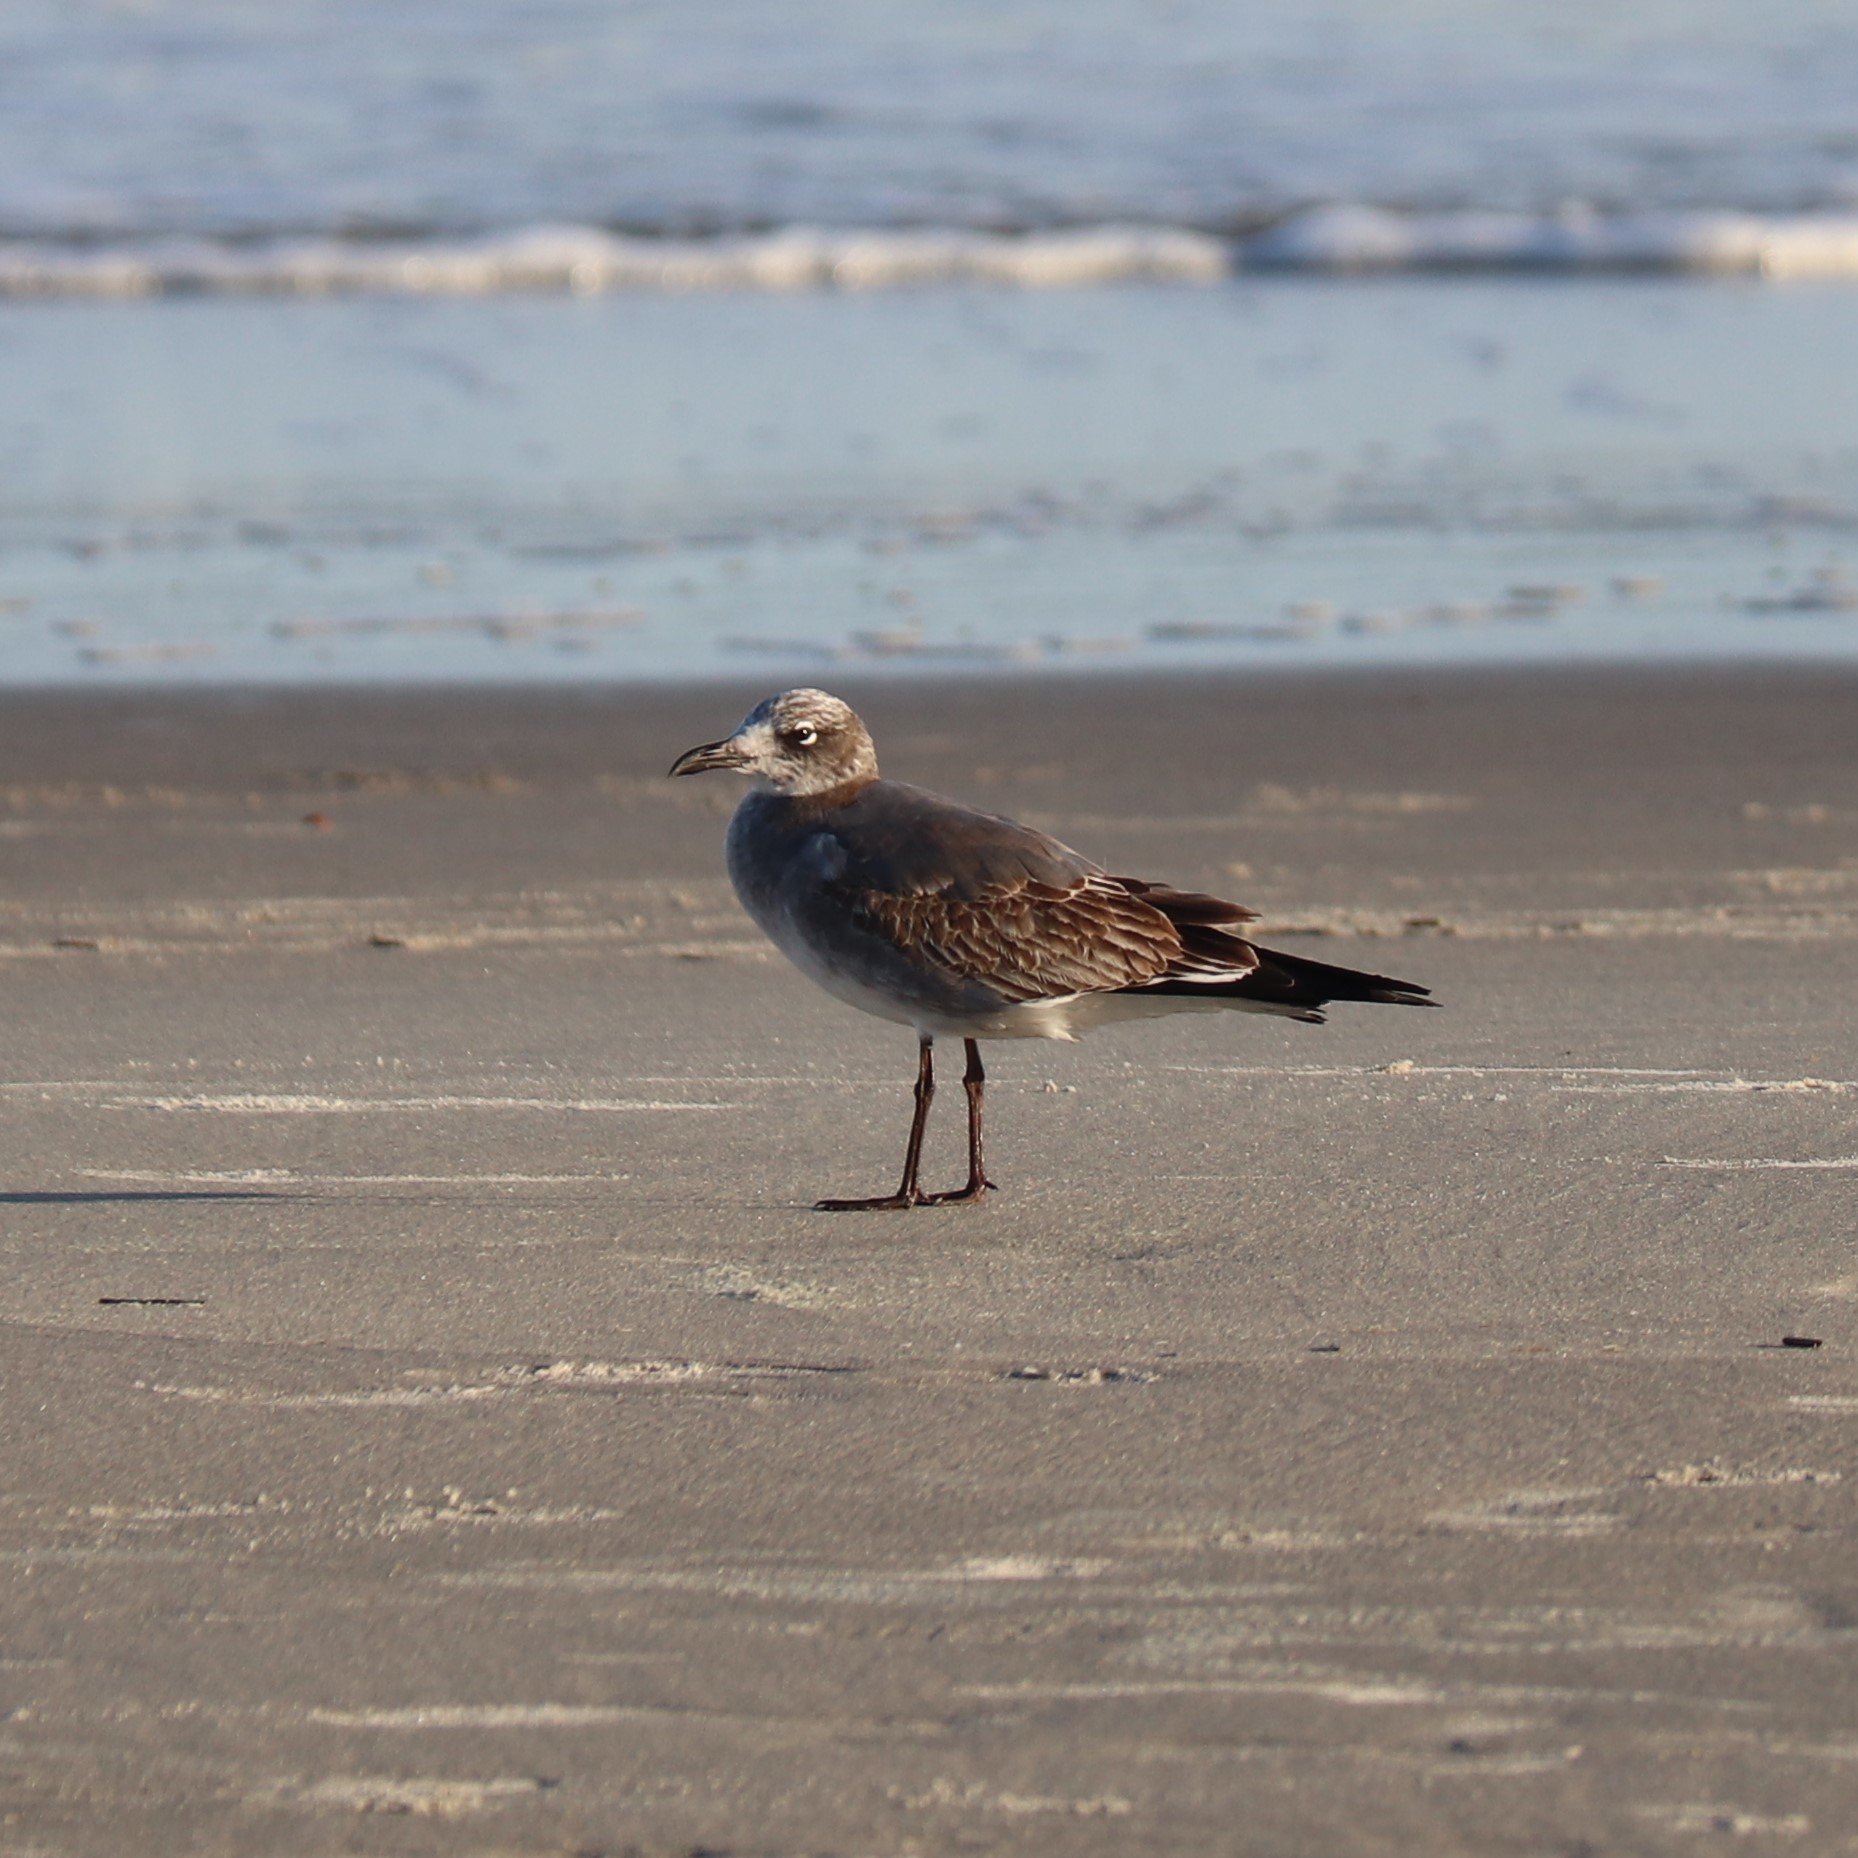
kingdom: Animalia
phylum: Chordata
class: Aves
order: Charadriiformes
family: Laridae
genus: Leucophaeus
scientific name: Leucophaeus atricilla
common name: Laughing gull
